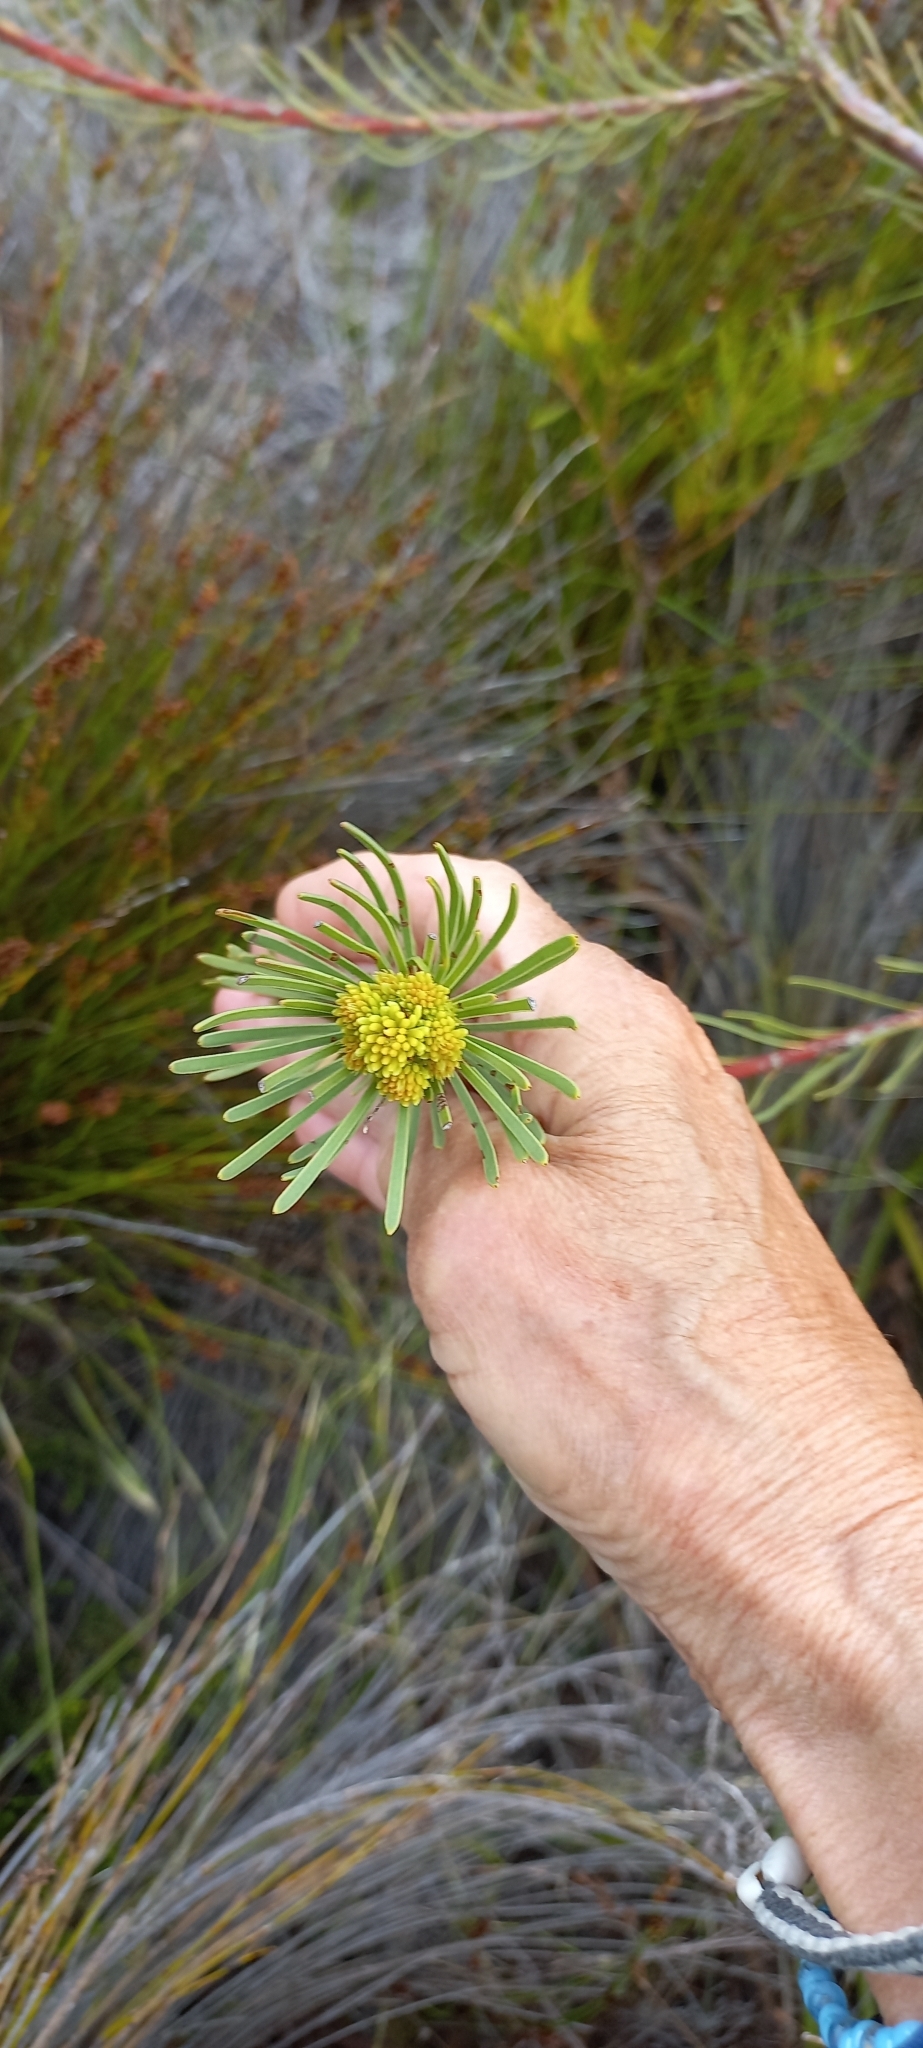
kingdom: Plantae
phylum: Tracheophyta
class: Magnoliopsida
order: Proteales
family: Proteaceae
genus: Aulax
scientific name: Aulax cancellata
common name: Channel-leaf featherbush
